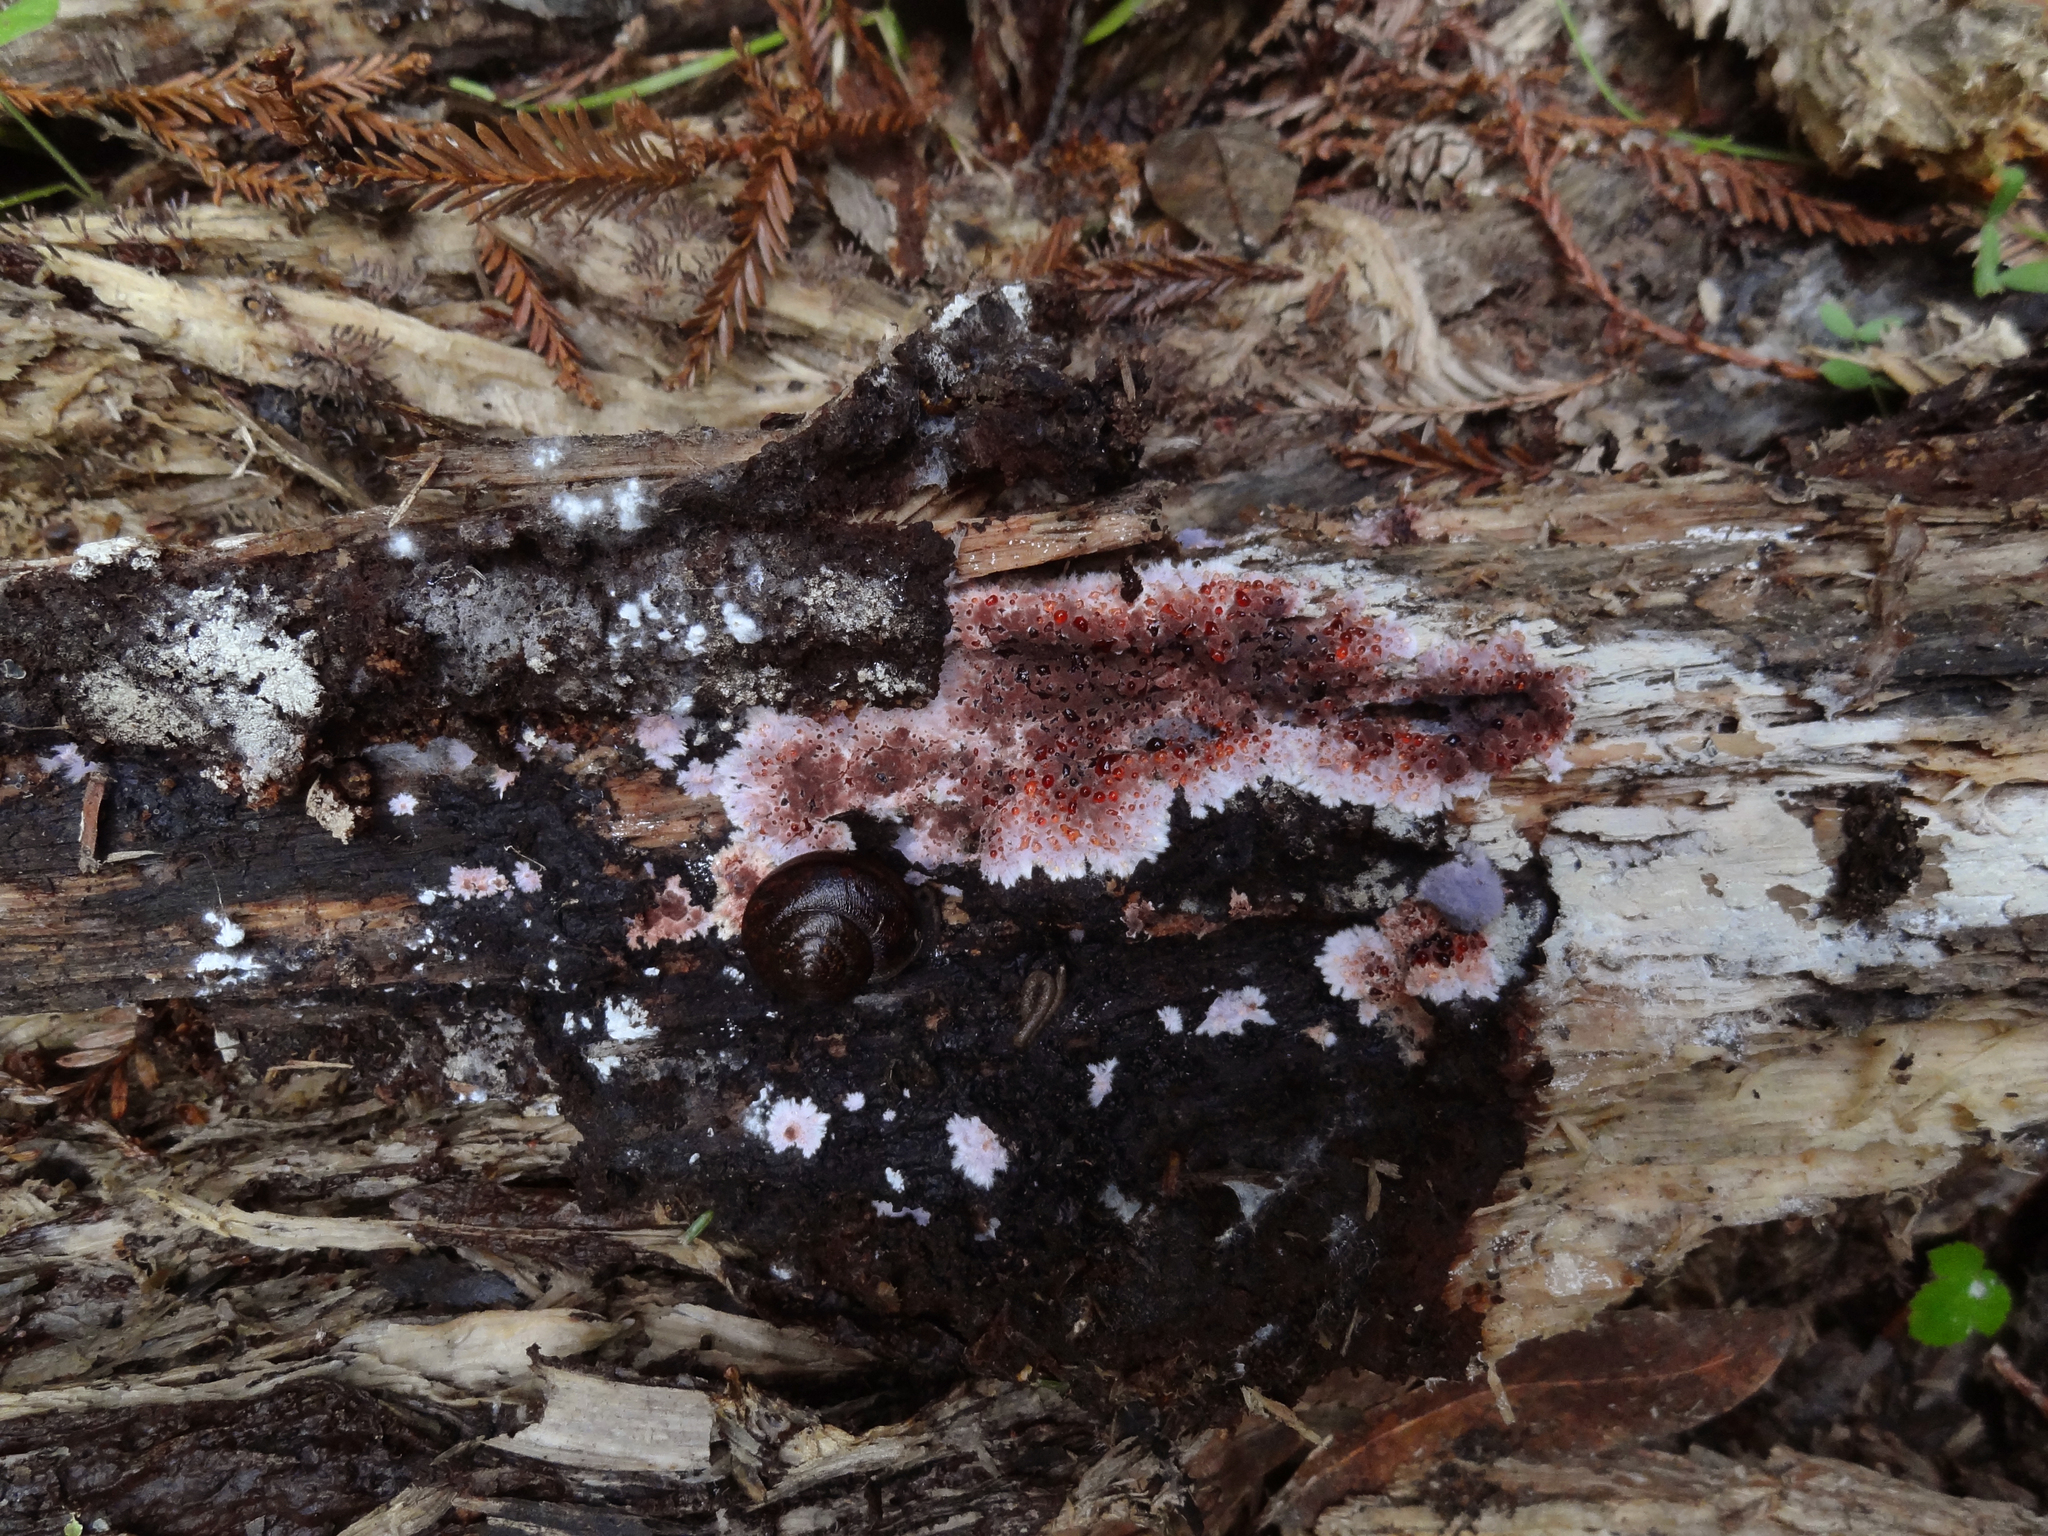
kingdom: Fungi
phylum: Basidiomycota
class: Agaricomycetes
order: Corticiales
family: Punctulariaceae
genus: Punctularia
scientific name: Punctularia atropurpurascens
